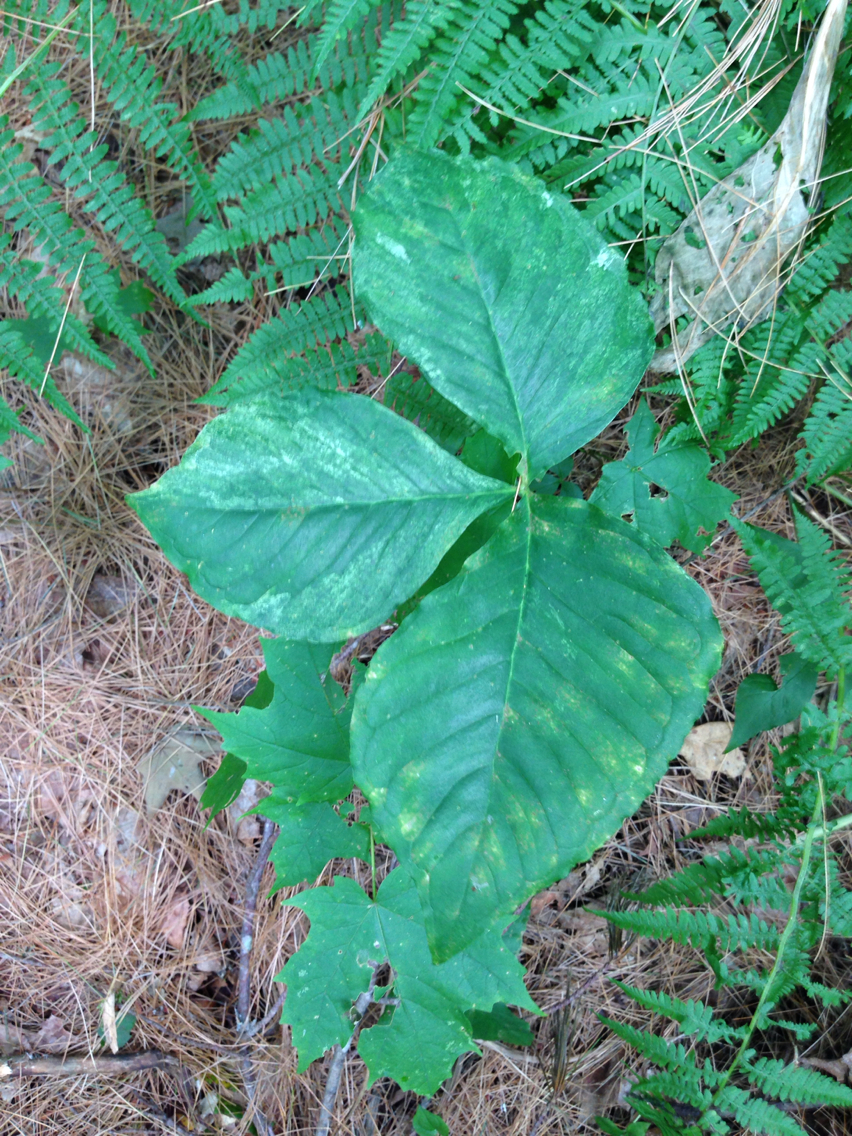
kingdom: Plantae
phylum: Tracheophyta
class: Liliopsida
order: Alismatales
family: Araceae
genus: Arisaema
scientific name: Arisaema triphyllum
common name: Jack-in-the-pulpit
